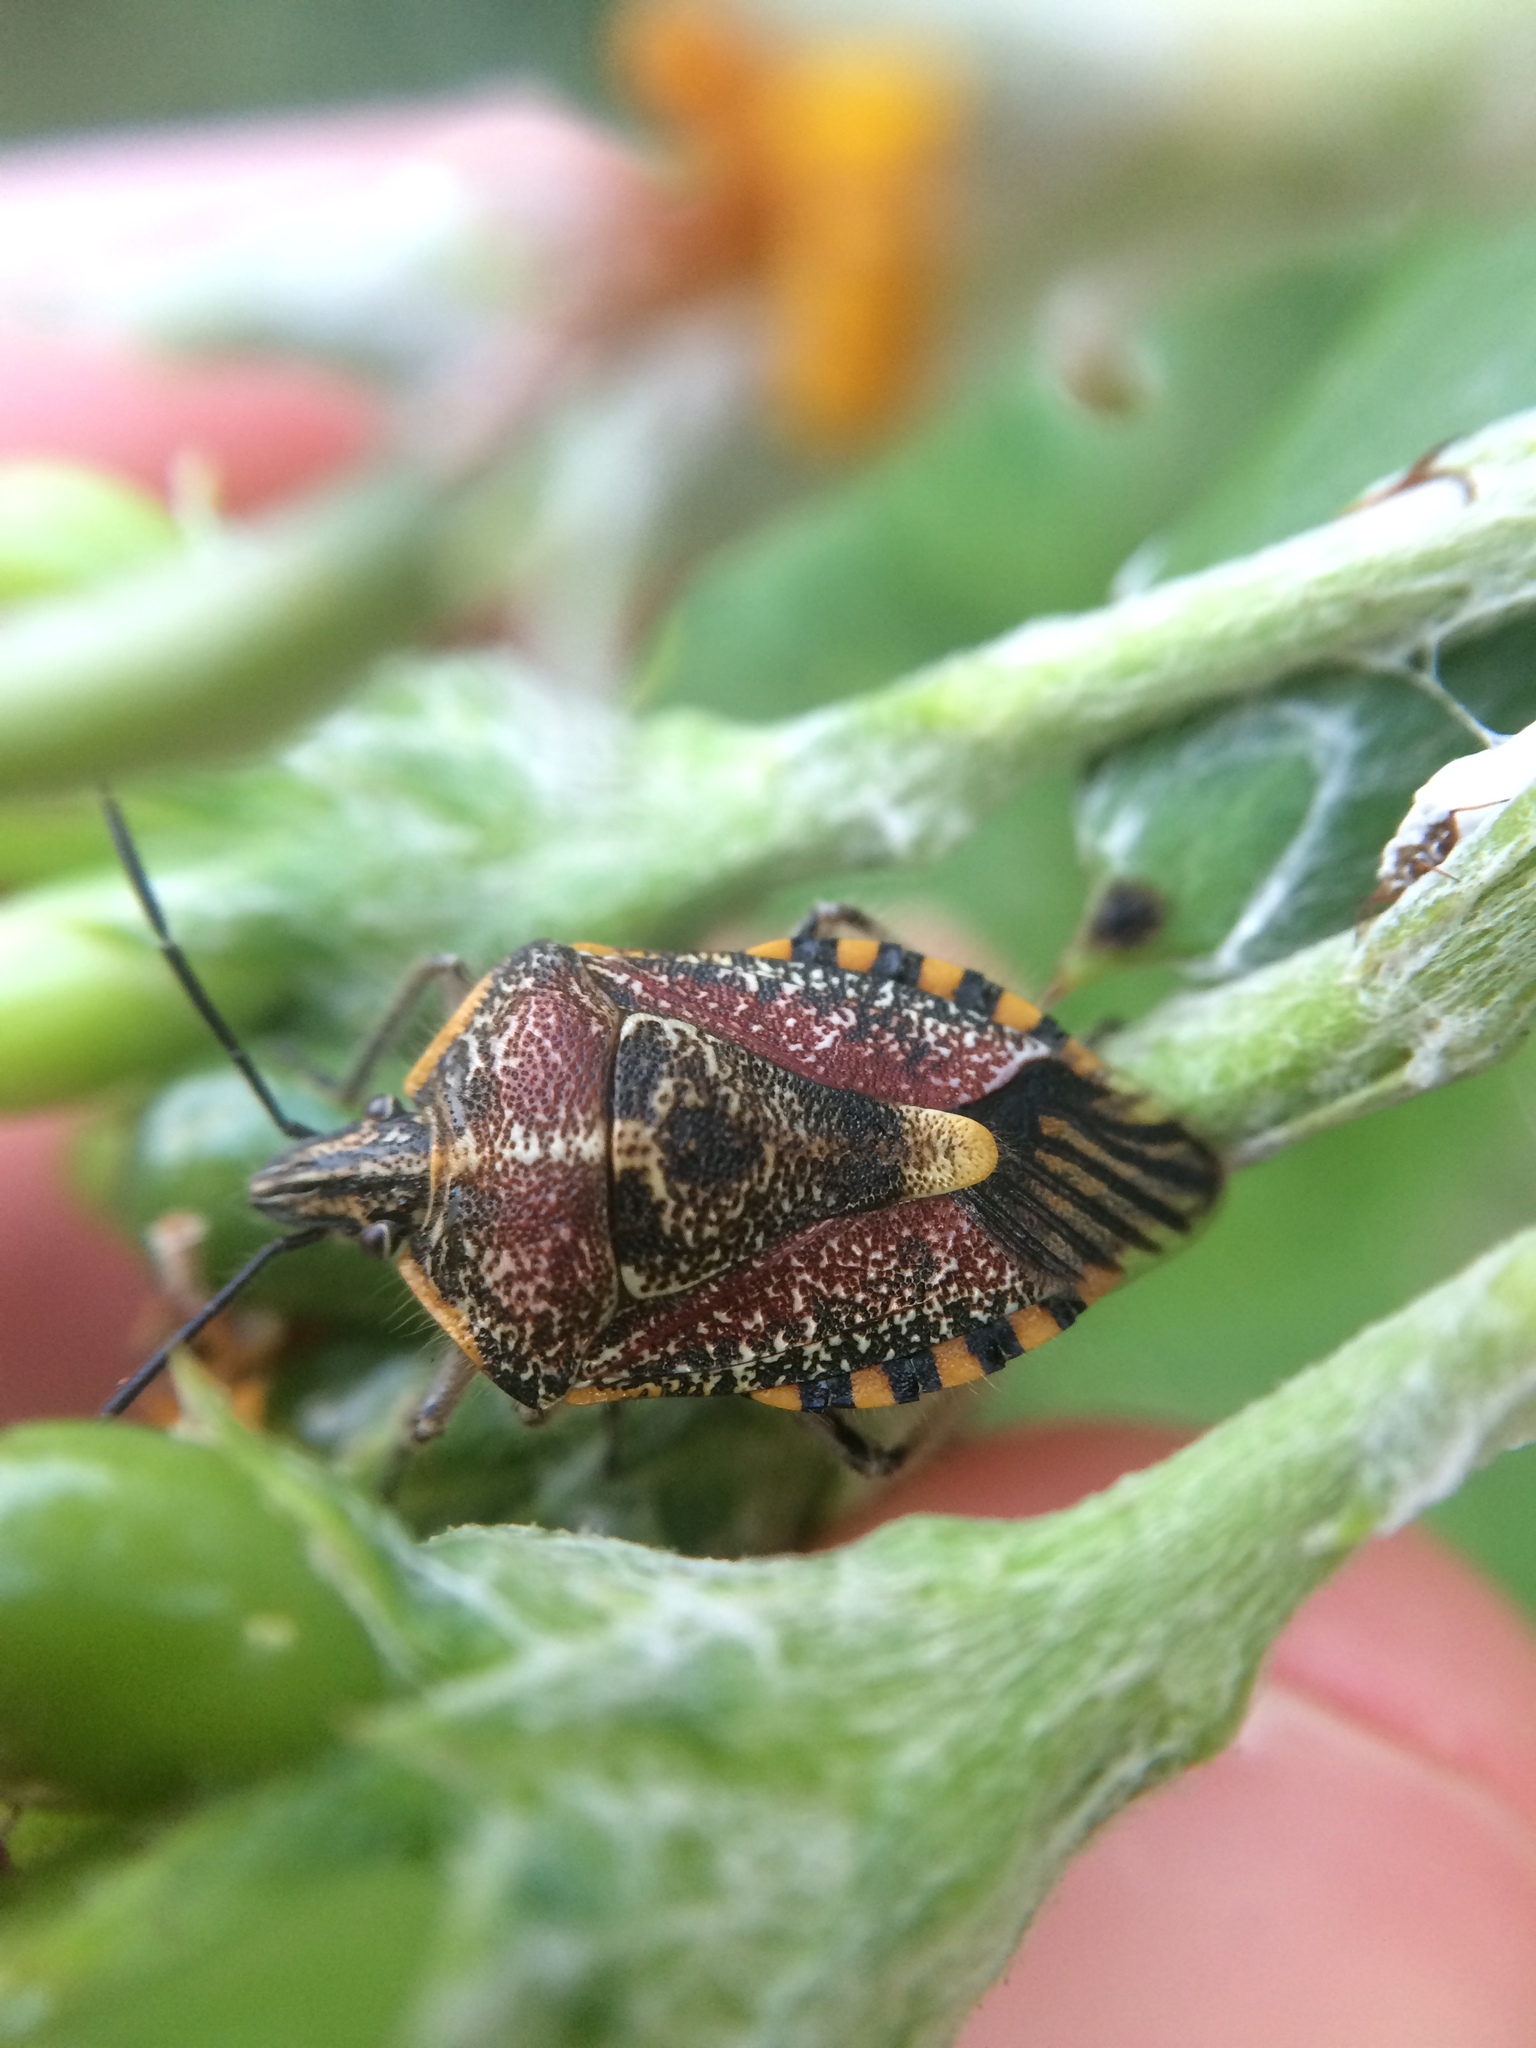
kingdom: Animalia
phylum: Arthropoda
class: Insecta
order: Hemiptera
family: Pentatomidae
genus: Agonoscelis
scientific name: Agonoscelis versicoloratus
